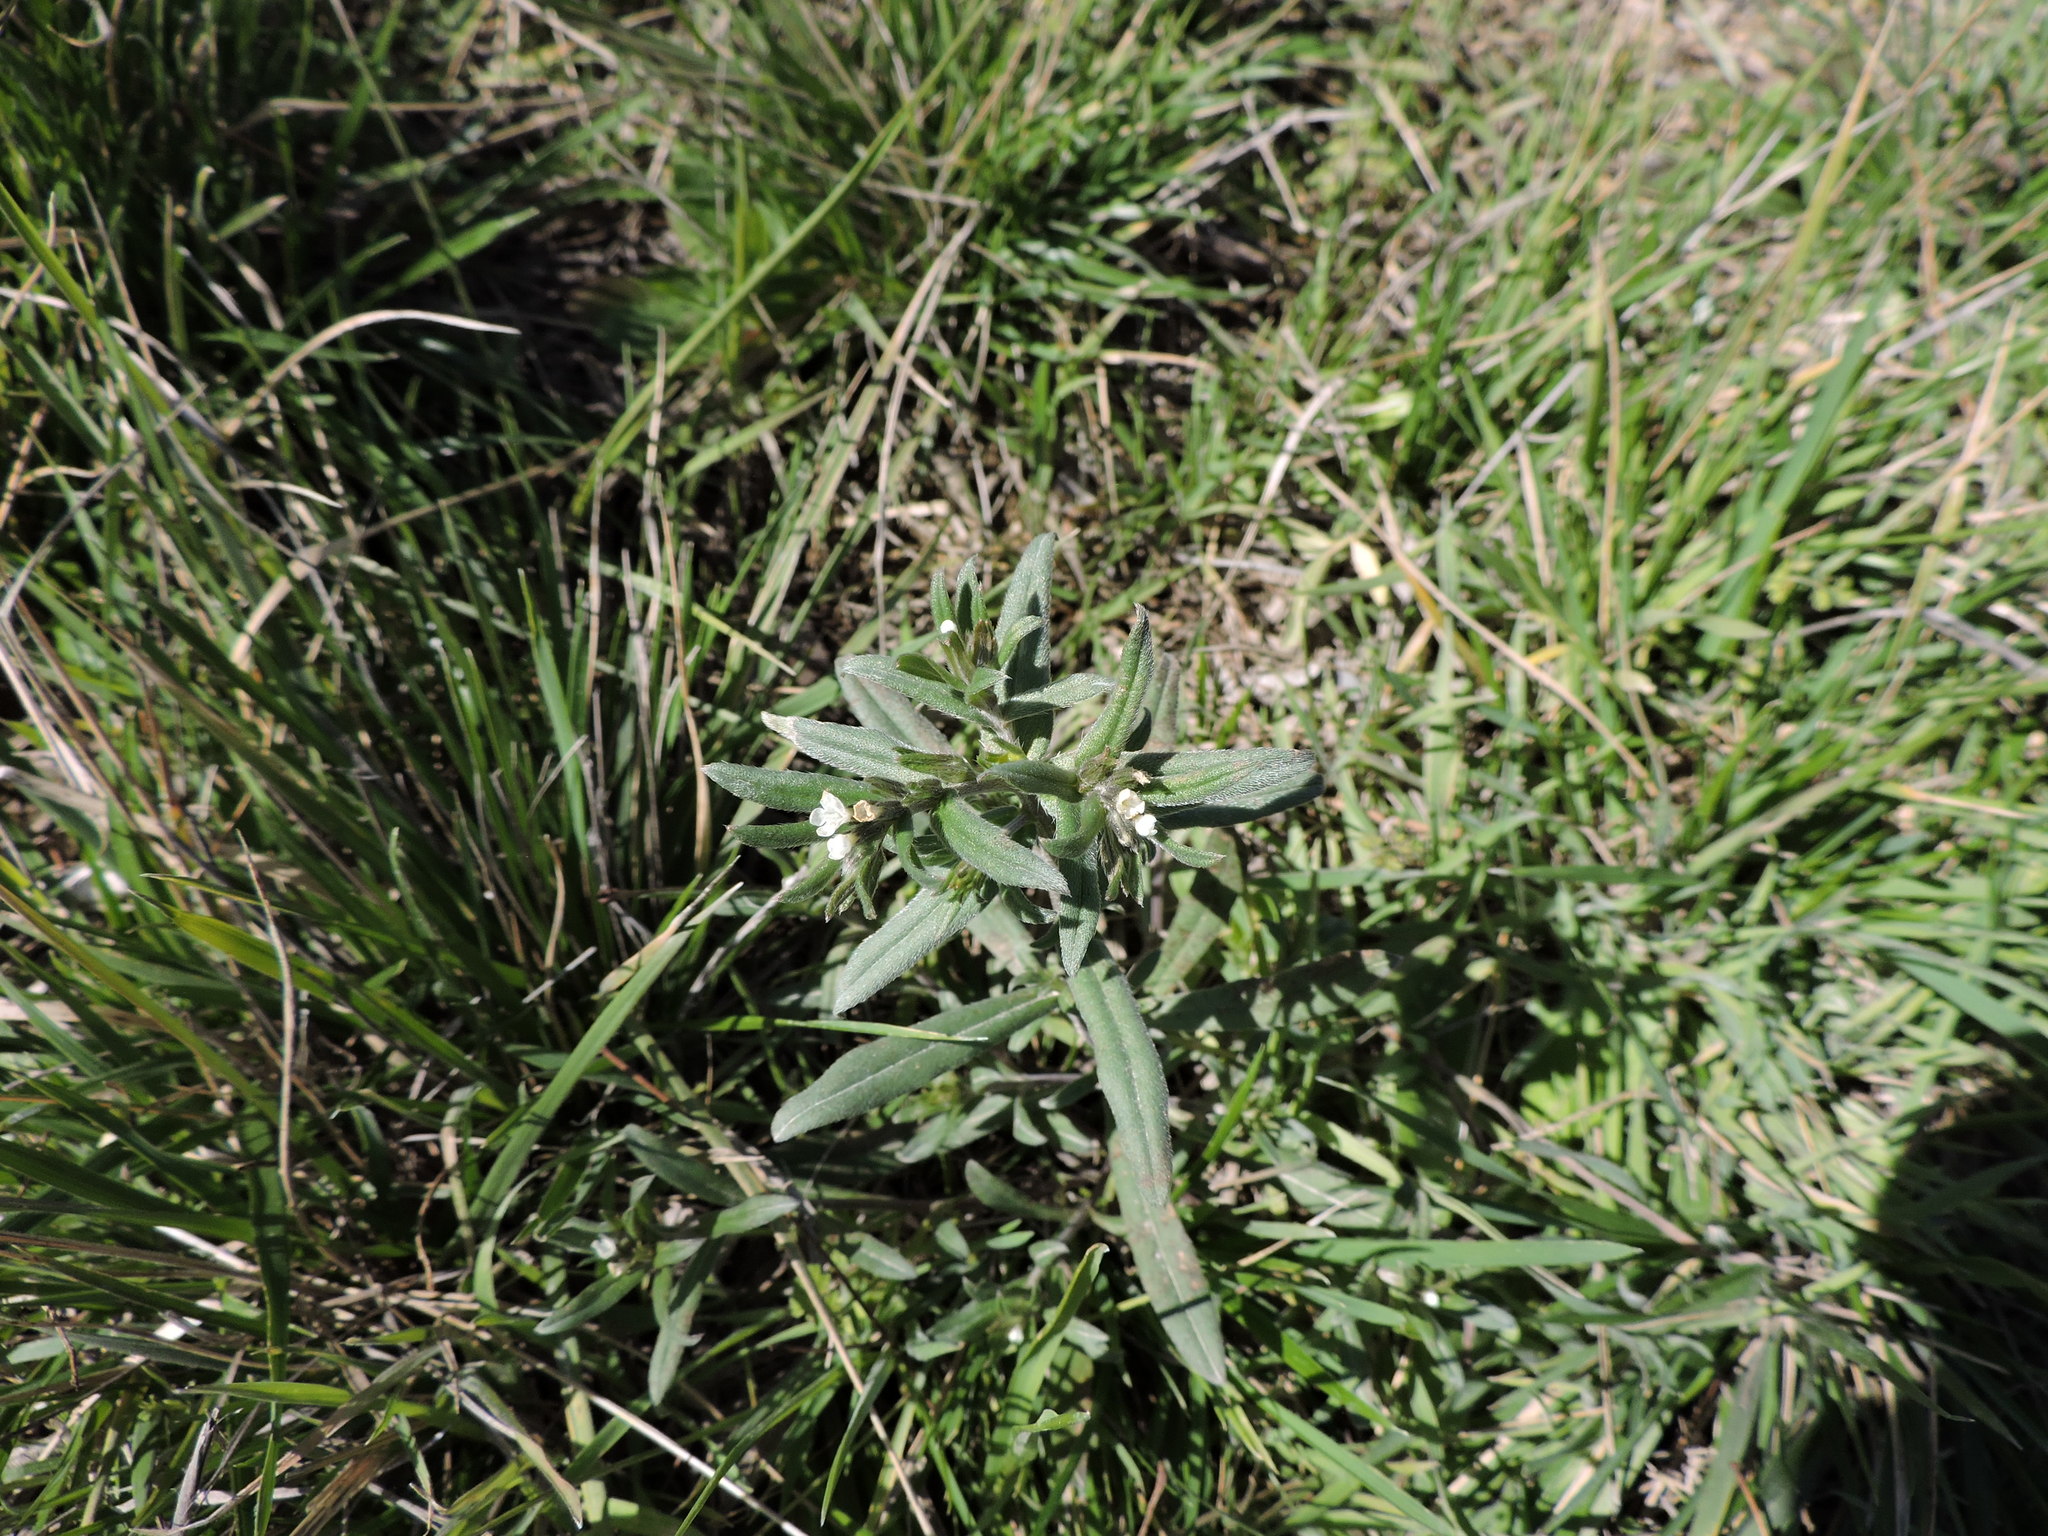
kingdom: Plantae
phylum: Tracheophyta
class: Magnoliopsida
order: Boraginales
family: Boraginaceae
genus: Buglossoides
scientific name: Buglossoides arvensis
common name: Corn gromwell
